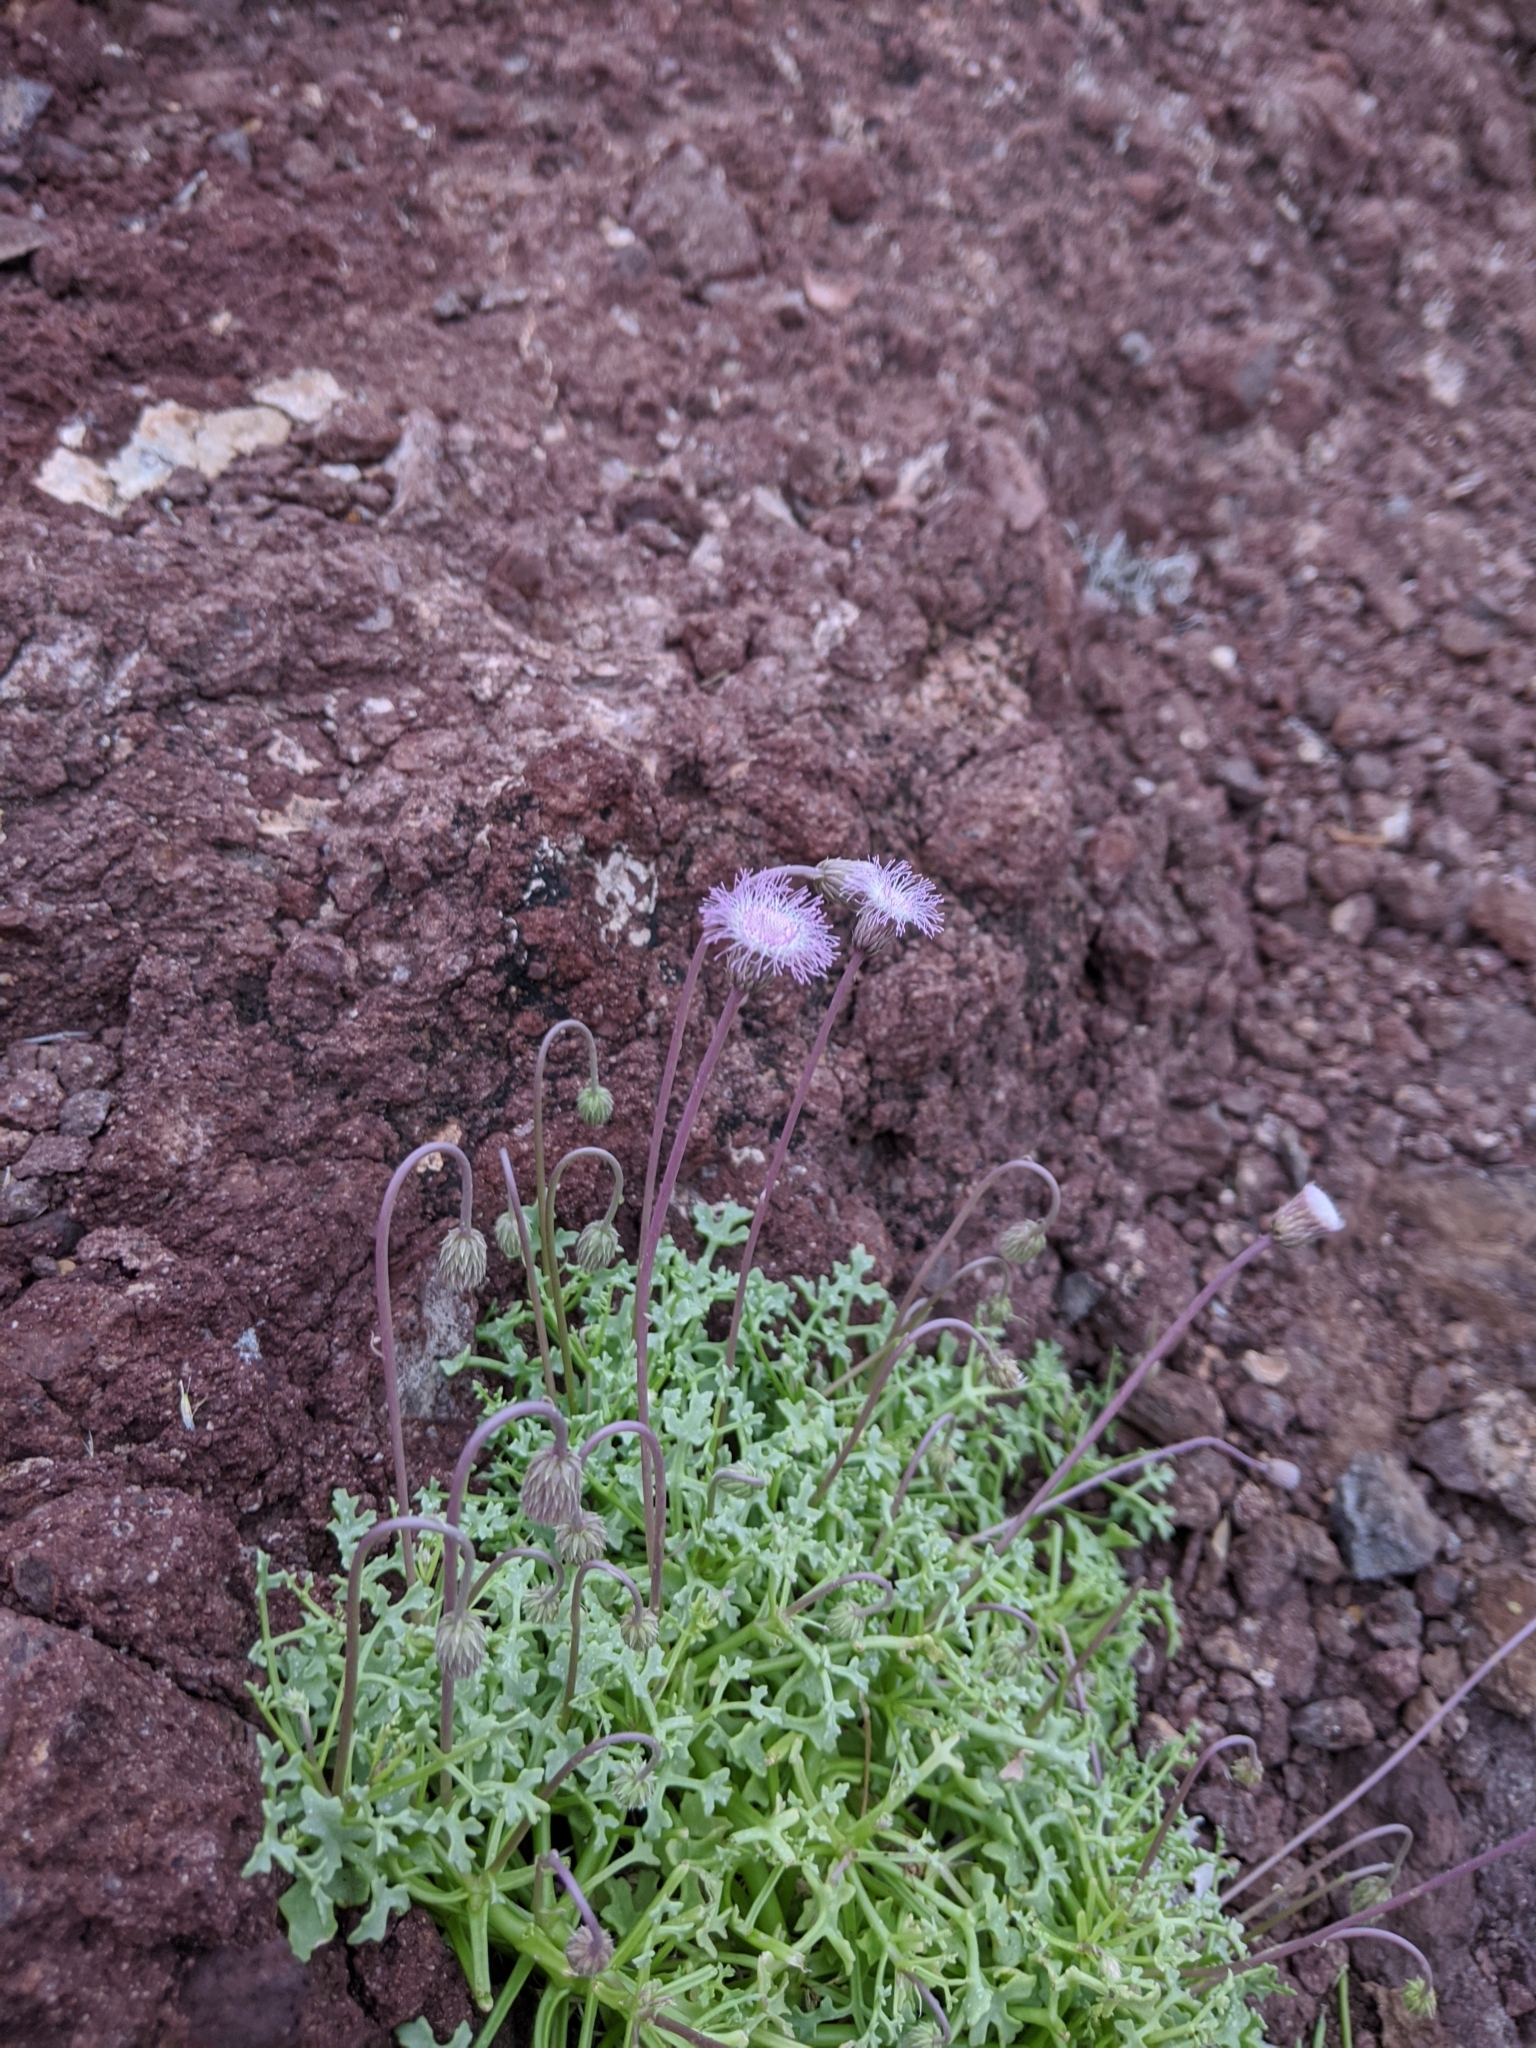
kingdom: Plantae
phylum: Tracheophyta
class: Magnoliopsida
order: Asterales
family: Asteraceae
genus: Hofmeisteria
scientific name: Hofmeisteria fasciculata
